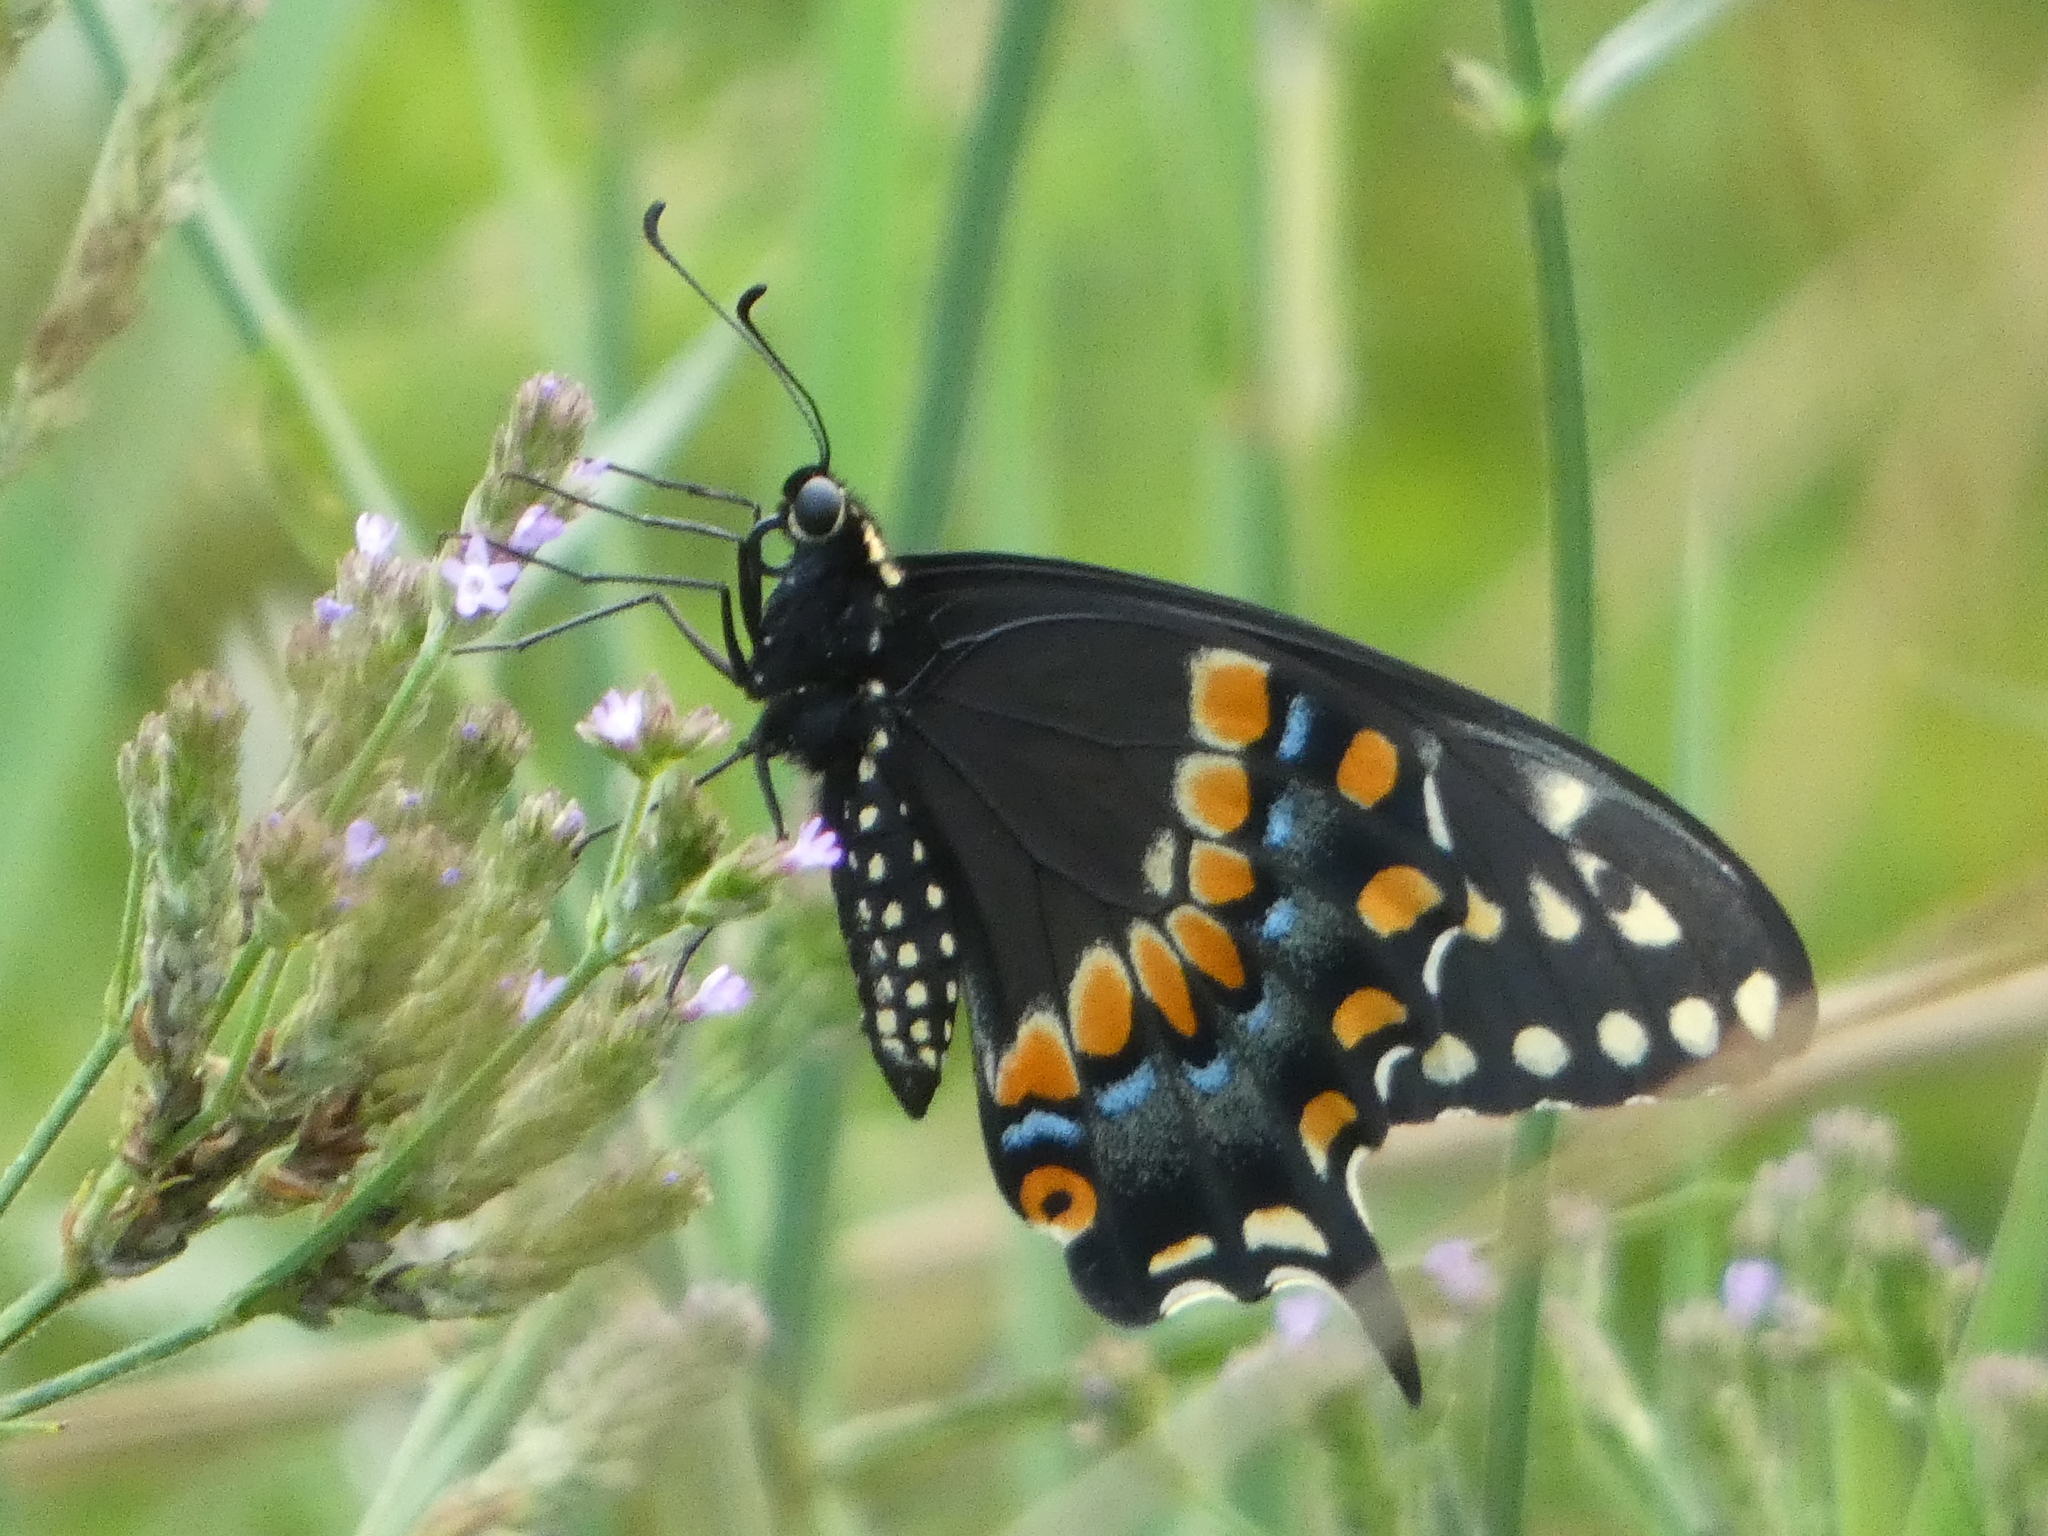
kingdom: Animalia
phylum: Arthropoda
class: Insecta
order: Lepidoptera
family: Papilionidae
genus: Papilio
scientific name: Papilio polyxenes
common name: Black swallowtail
